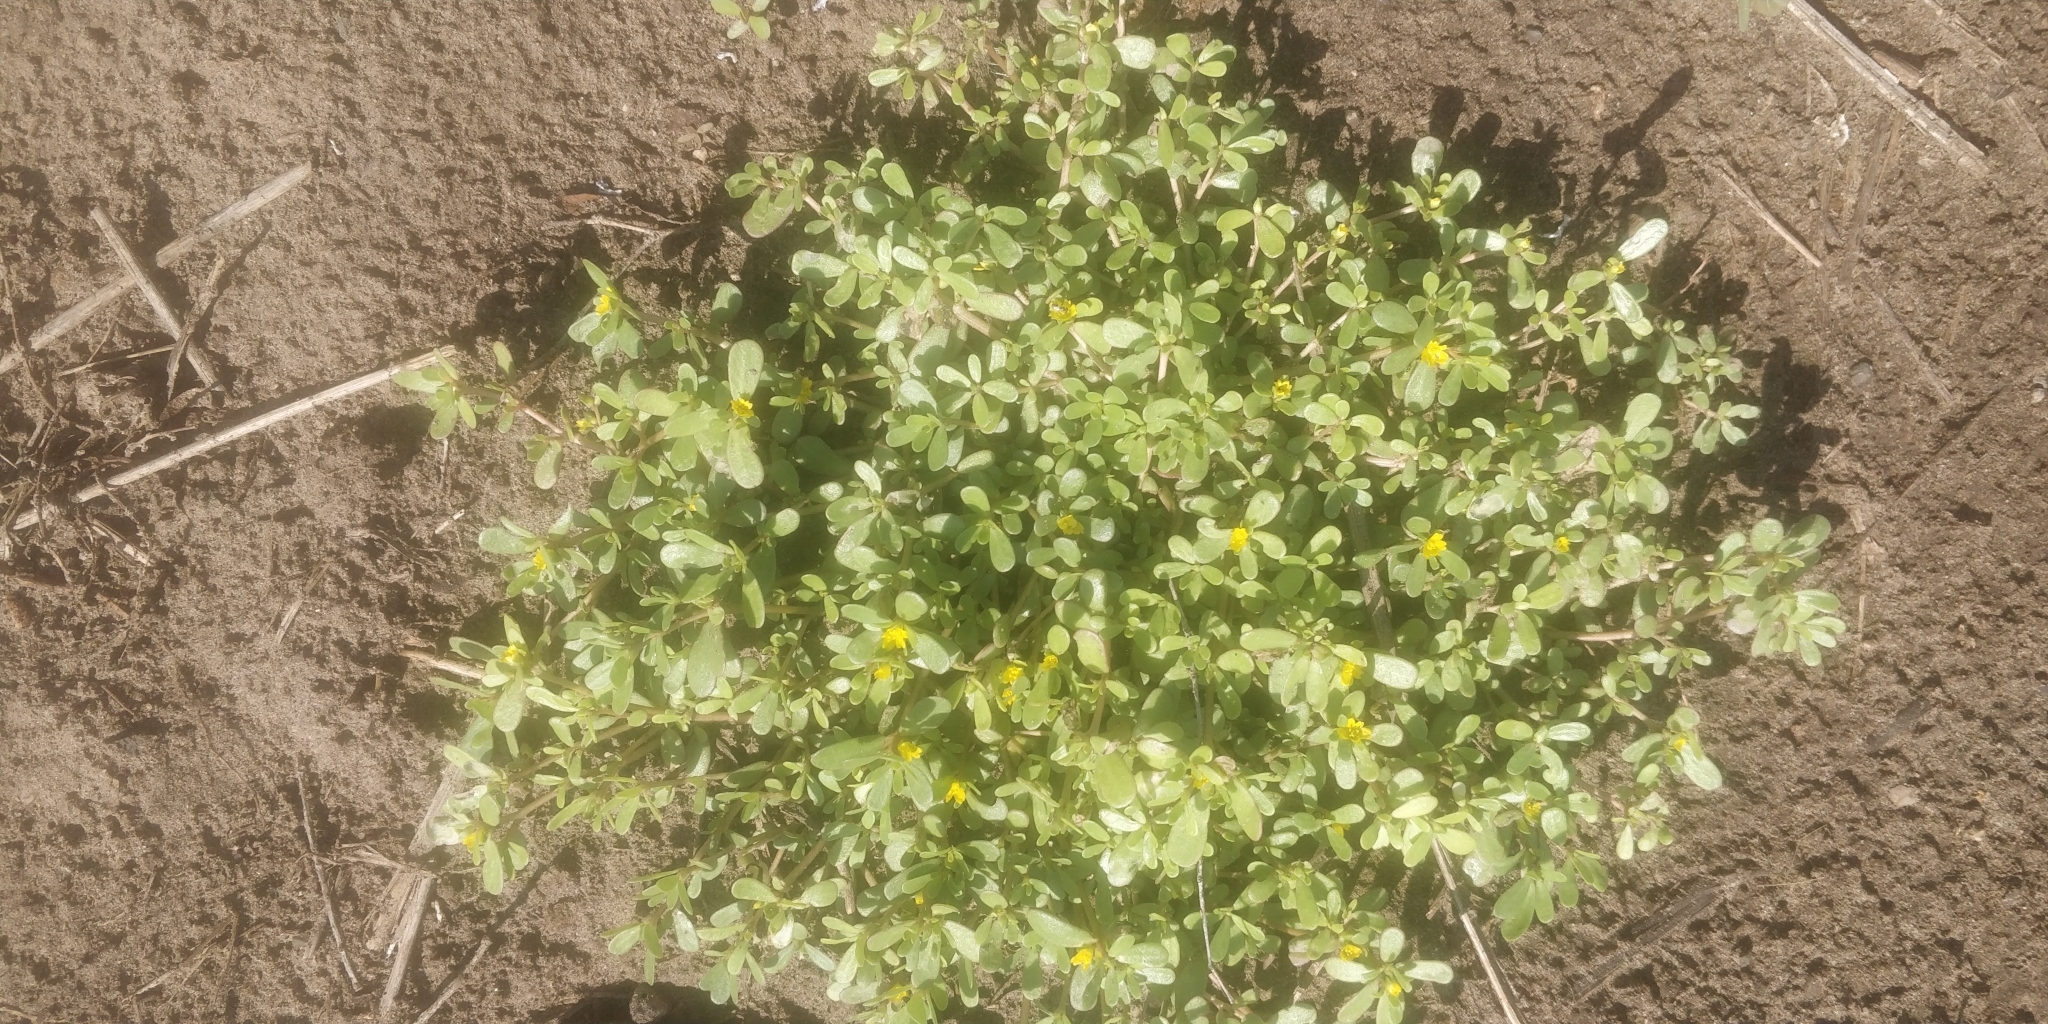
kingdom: Plantae
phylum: Tracheophyta
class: Magnoliopsida
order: Caryophyllales
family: Portulacaceae
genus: Portulaca
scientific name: Portulaca oleracea
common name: Common purslane
